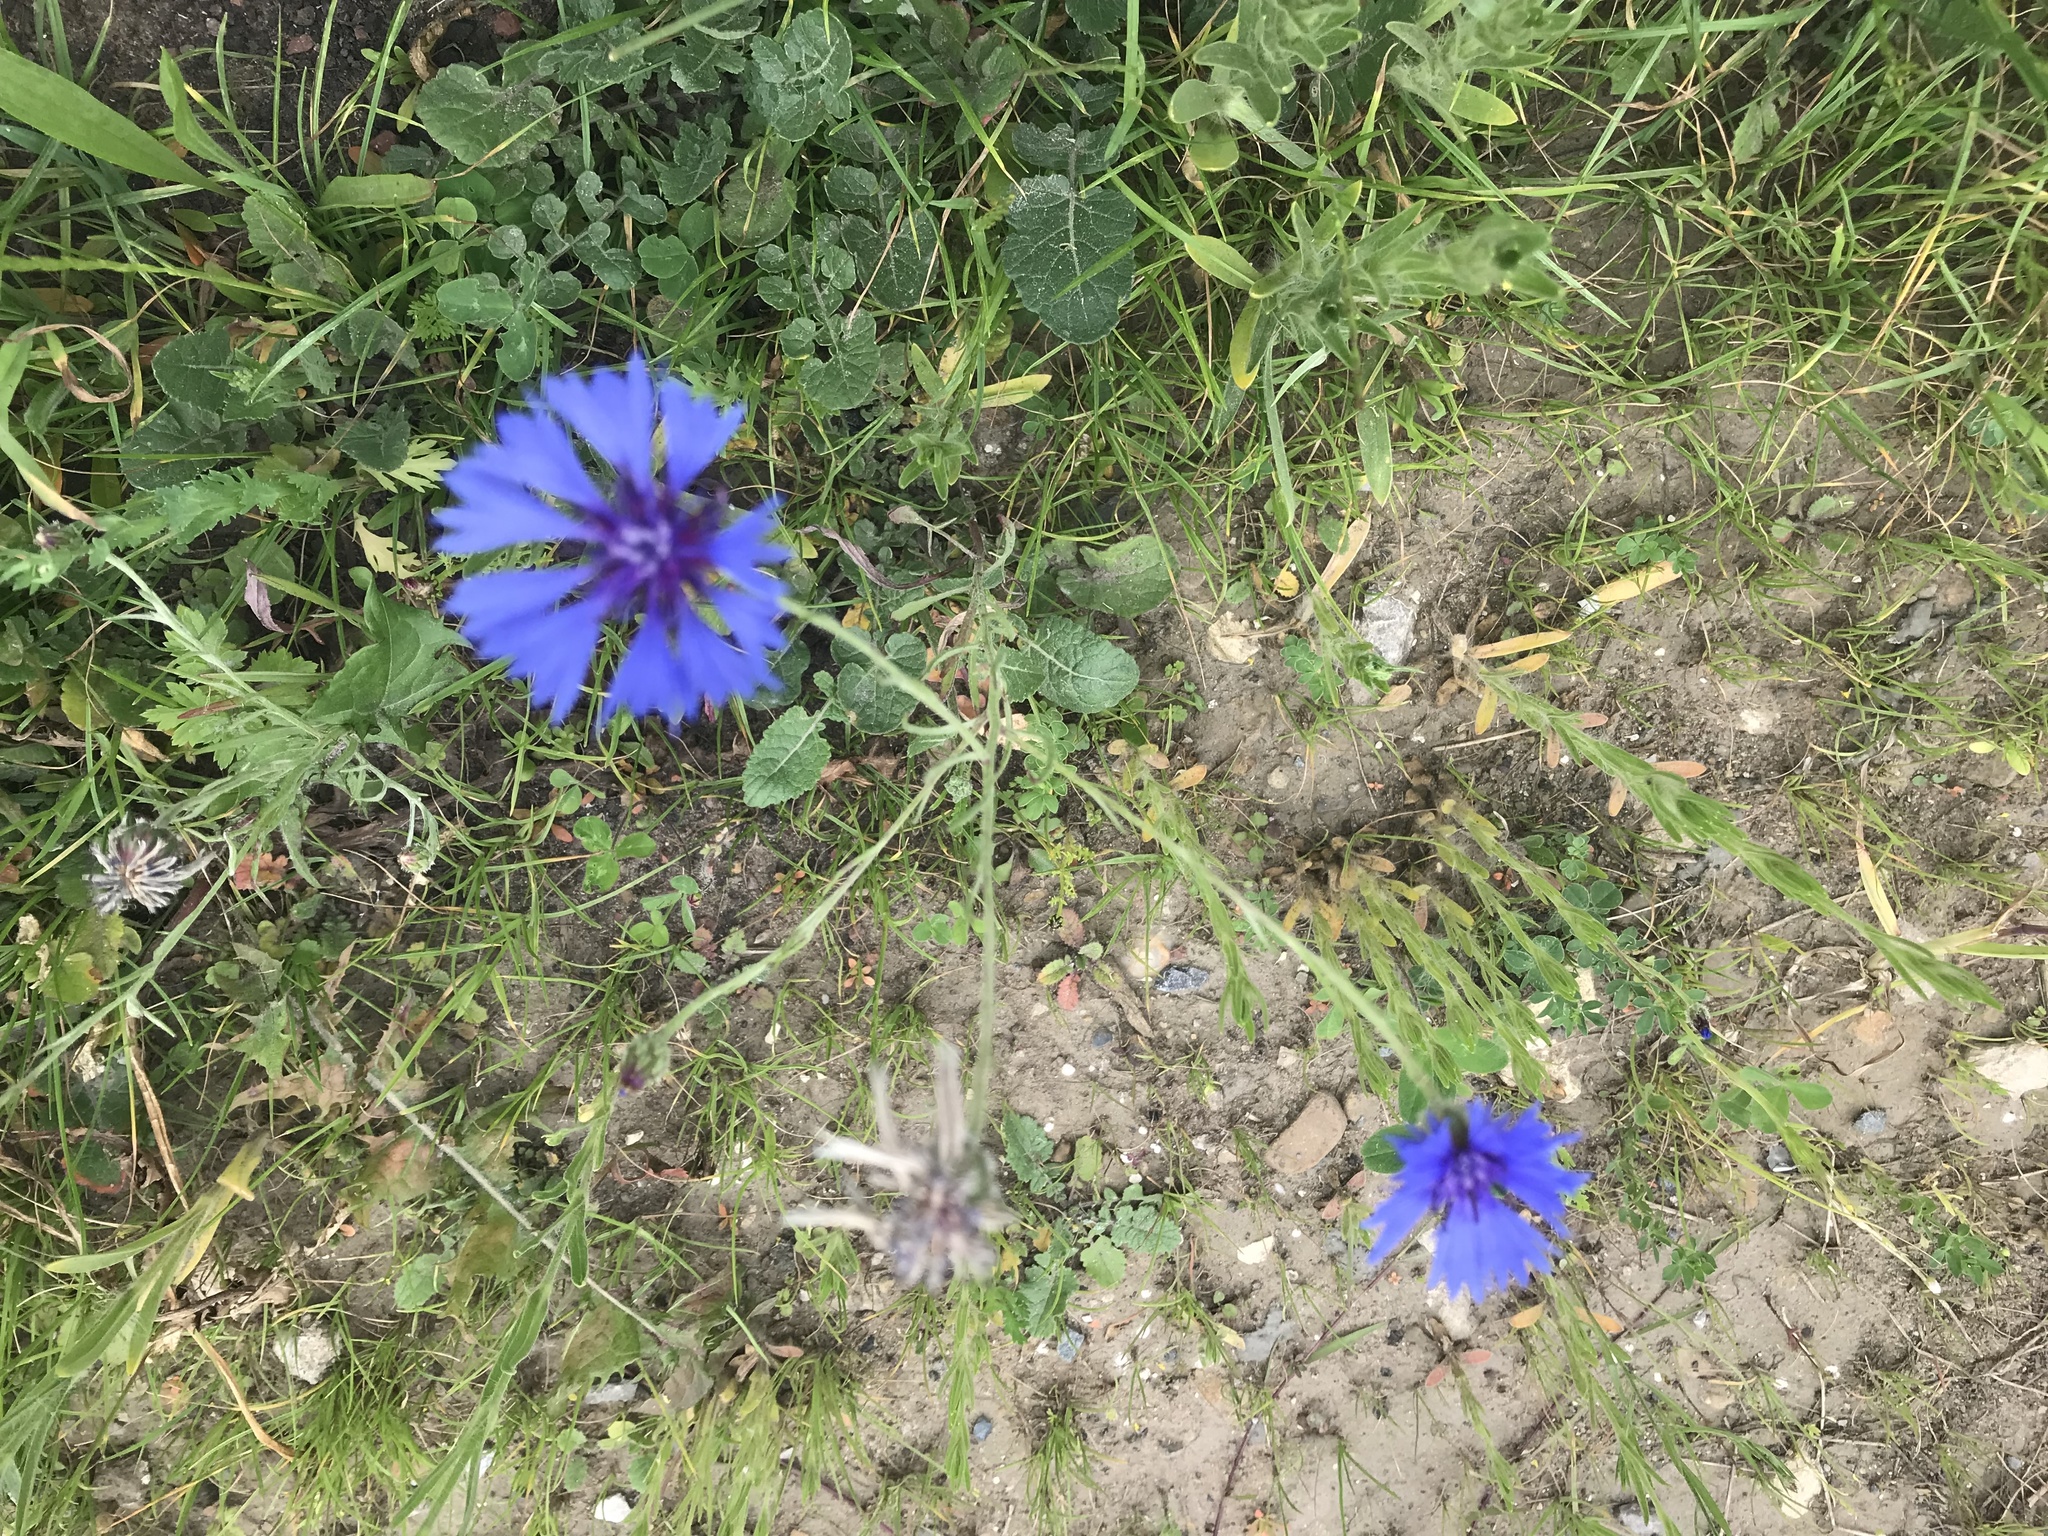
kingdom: Plantae
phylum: Tracheophyta
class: Magnoliopsida
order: Asterales
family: Asteraceae
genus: Centaurea
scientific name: Centaurea cyanus
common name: Cornflower
